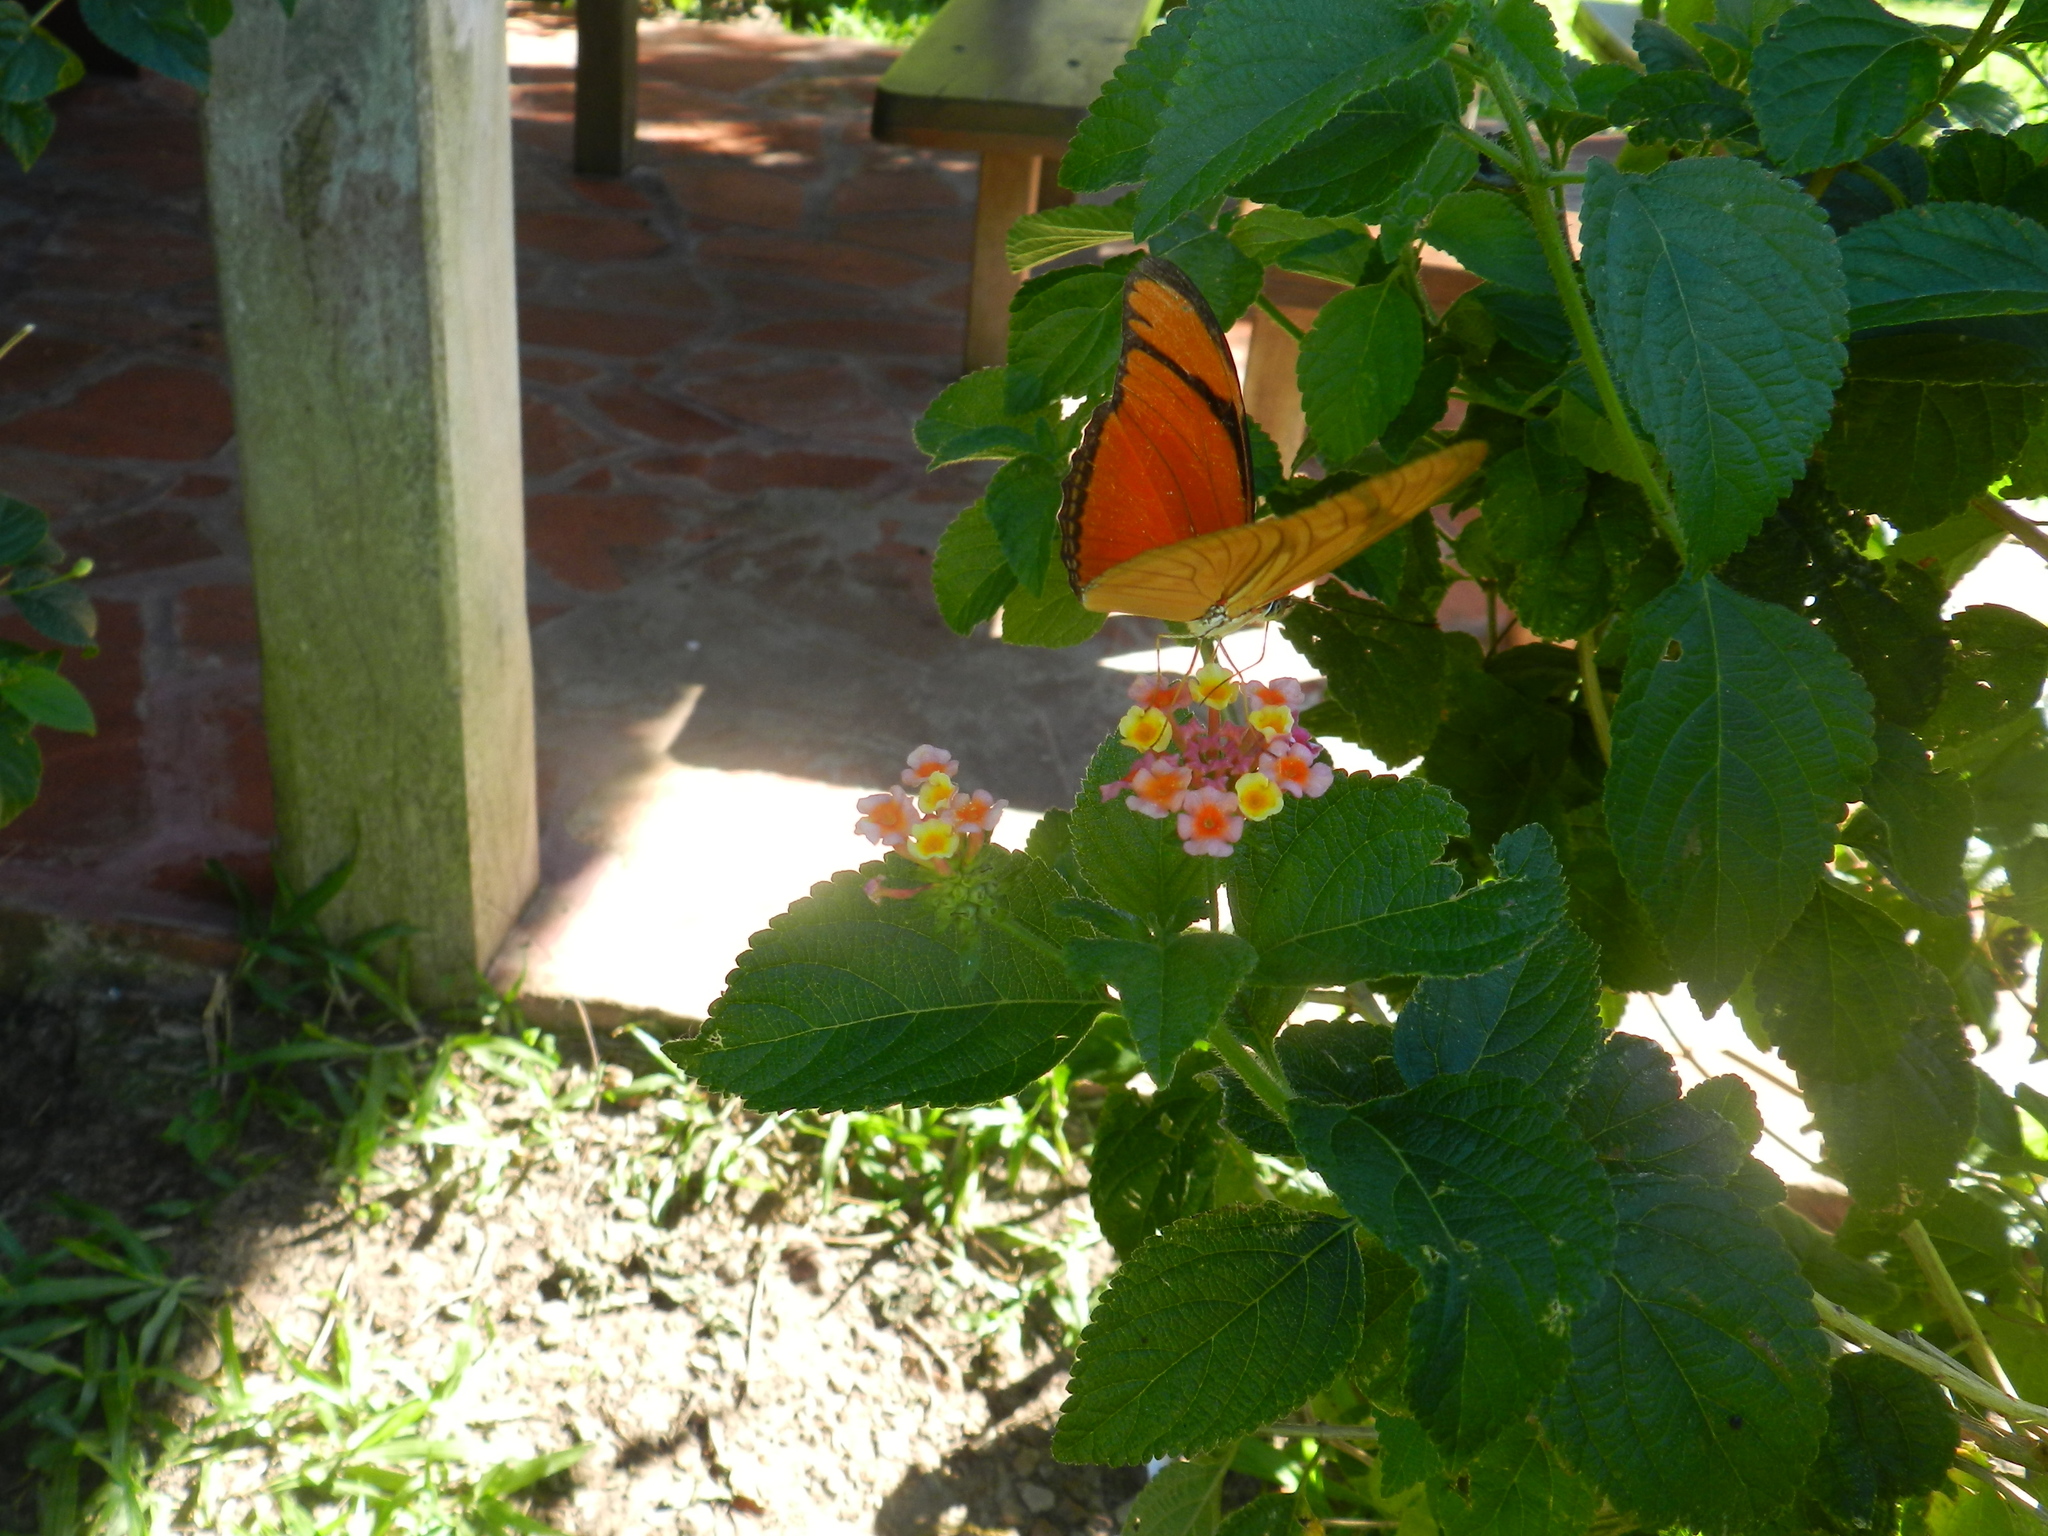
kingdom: Animalia
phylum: Arthropoda
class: Insecta
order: Lepidoptera
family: Nymphalidae
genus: Dryas
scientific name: Dryas iulia
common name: Flambeau
